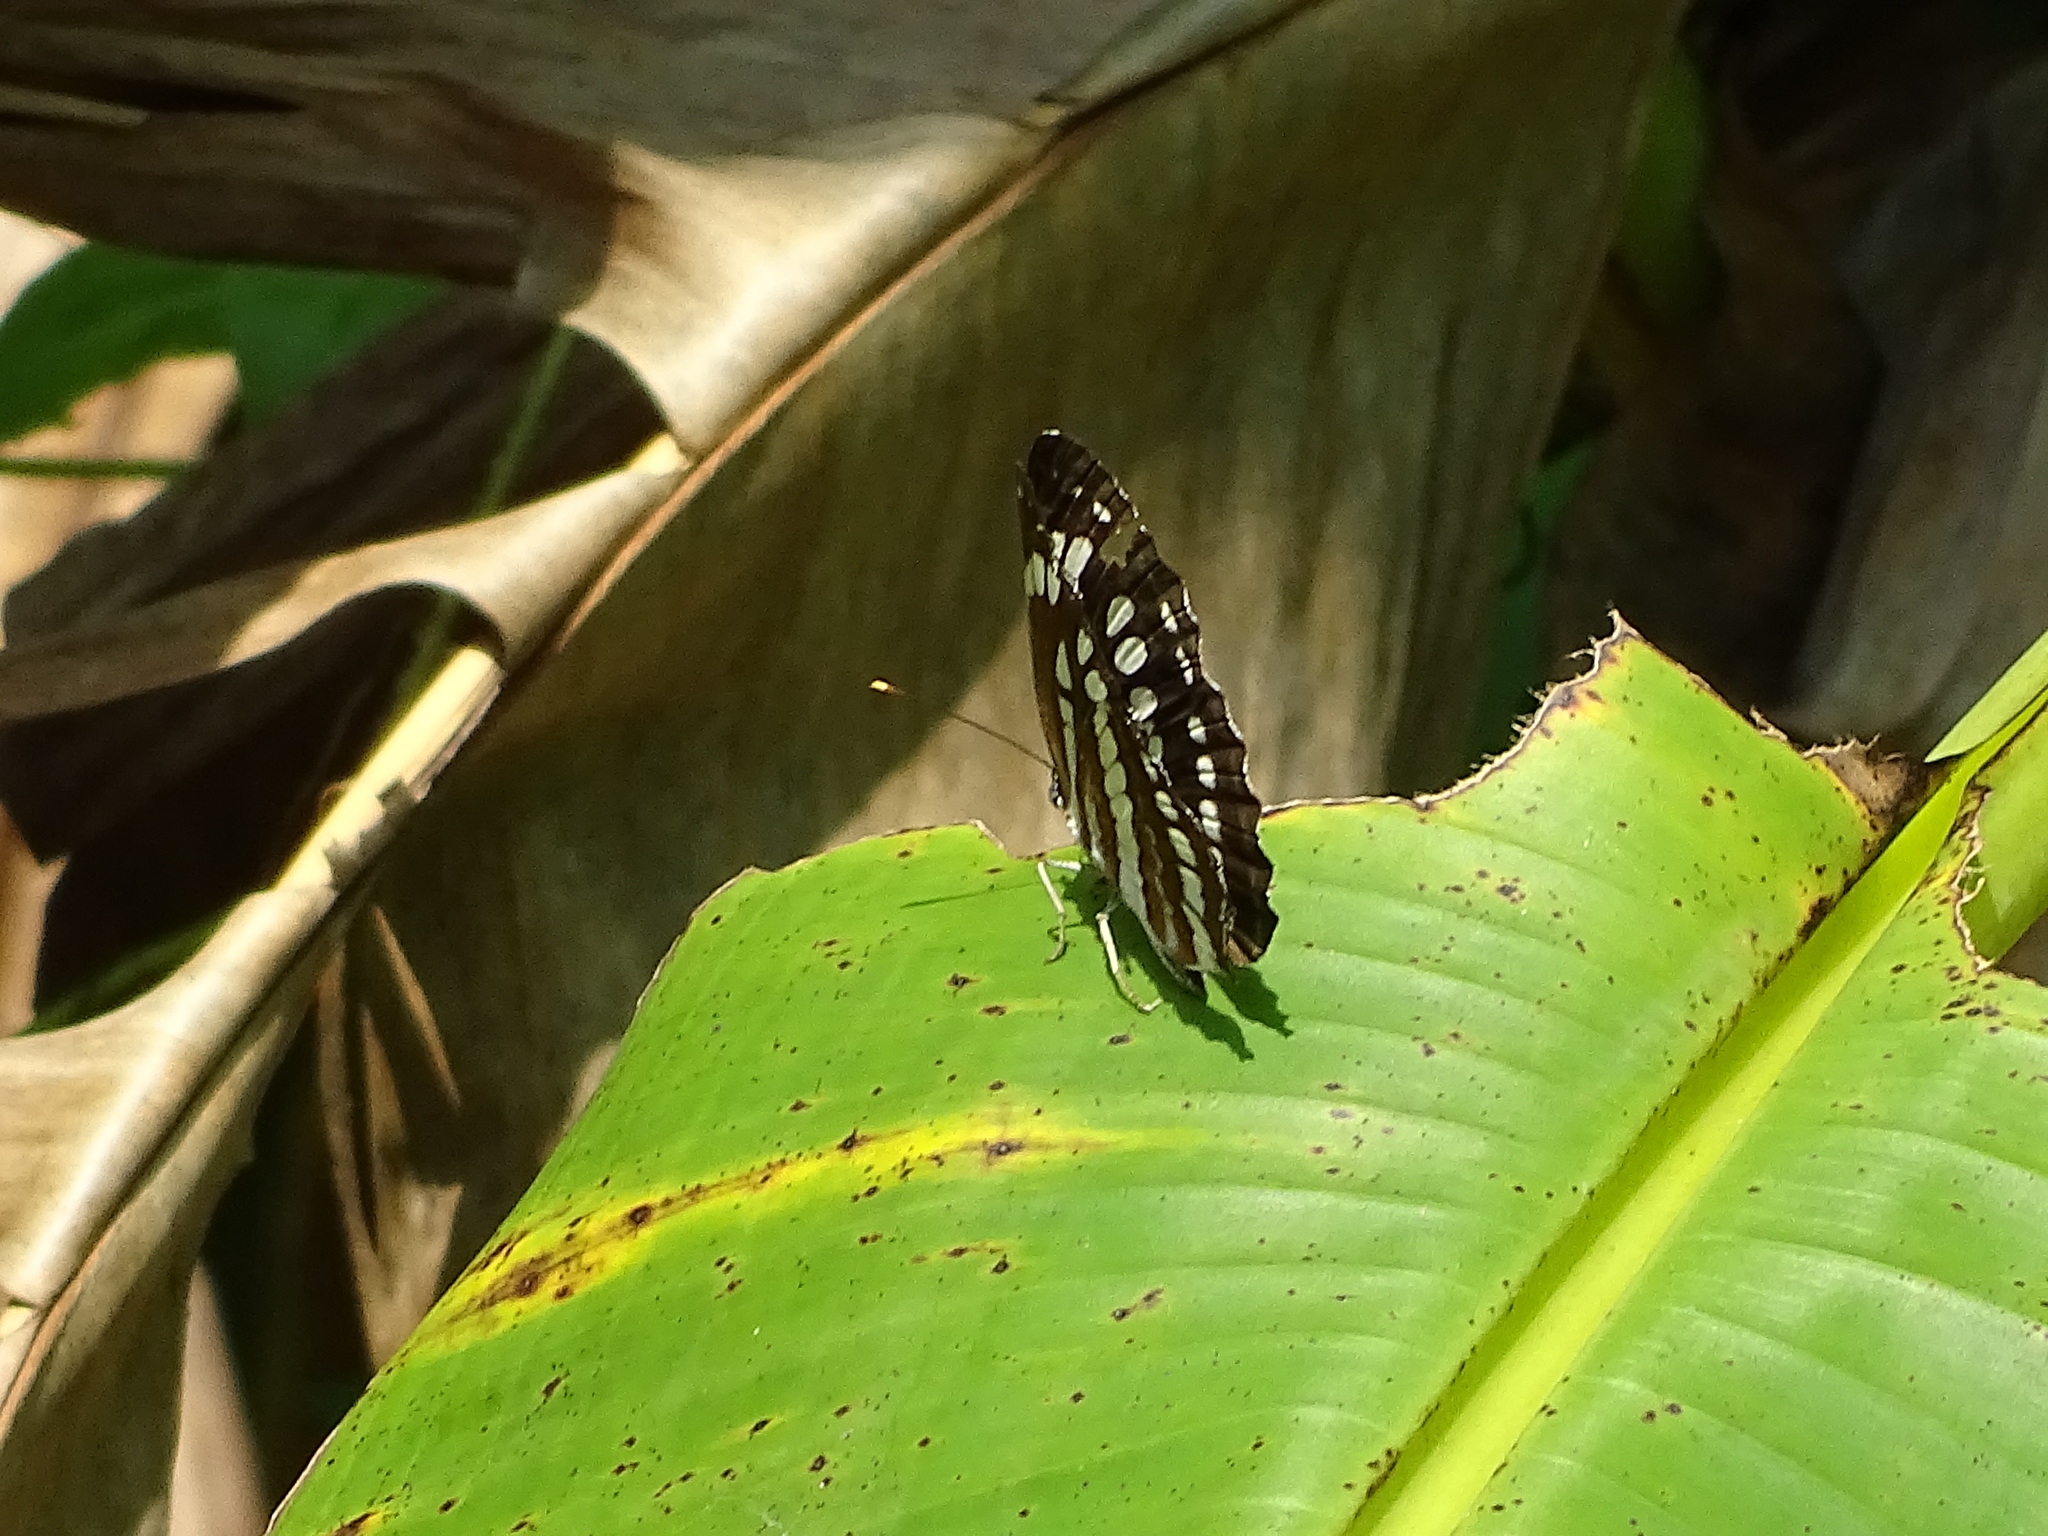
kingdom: Animalia
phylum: Arthropoda
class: Insecta
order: Lepidoptera
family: Nymphalidae
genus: Neptis
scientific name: Neptis hylas
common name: Common sailer
